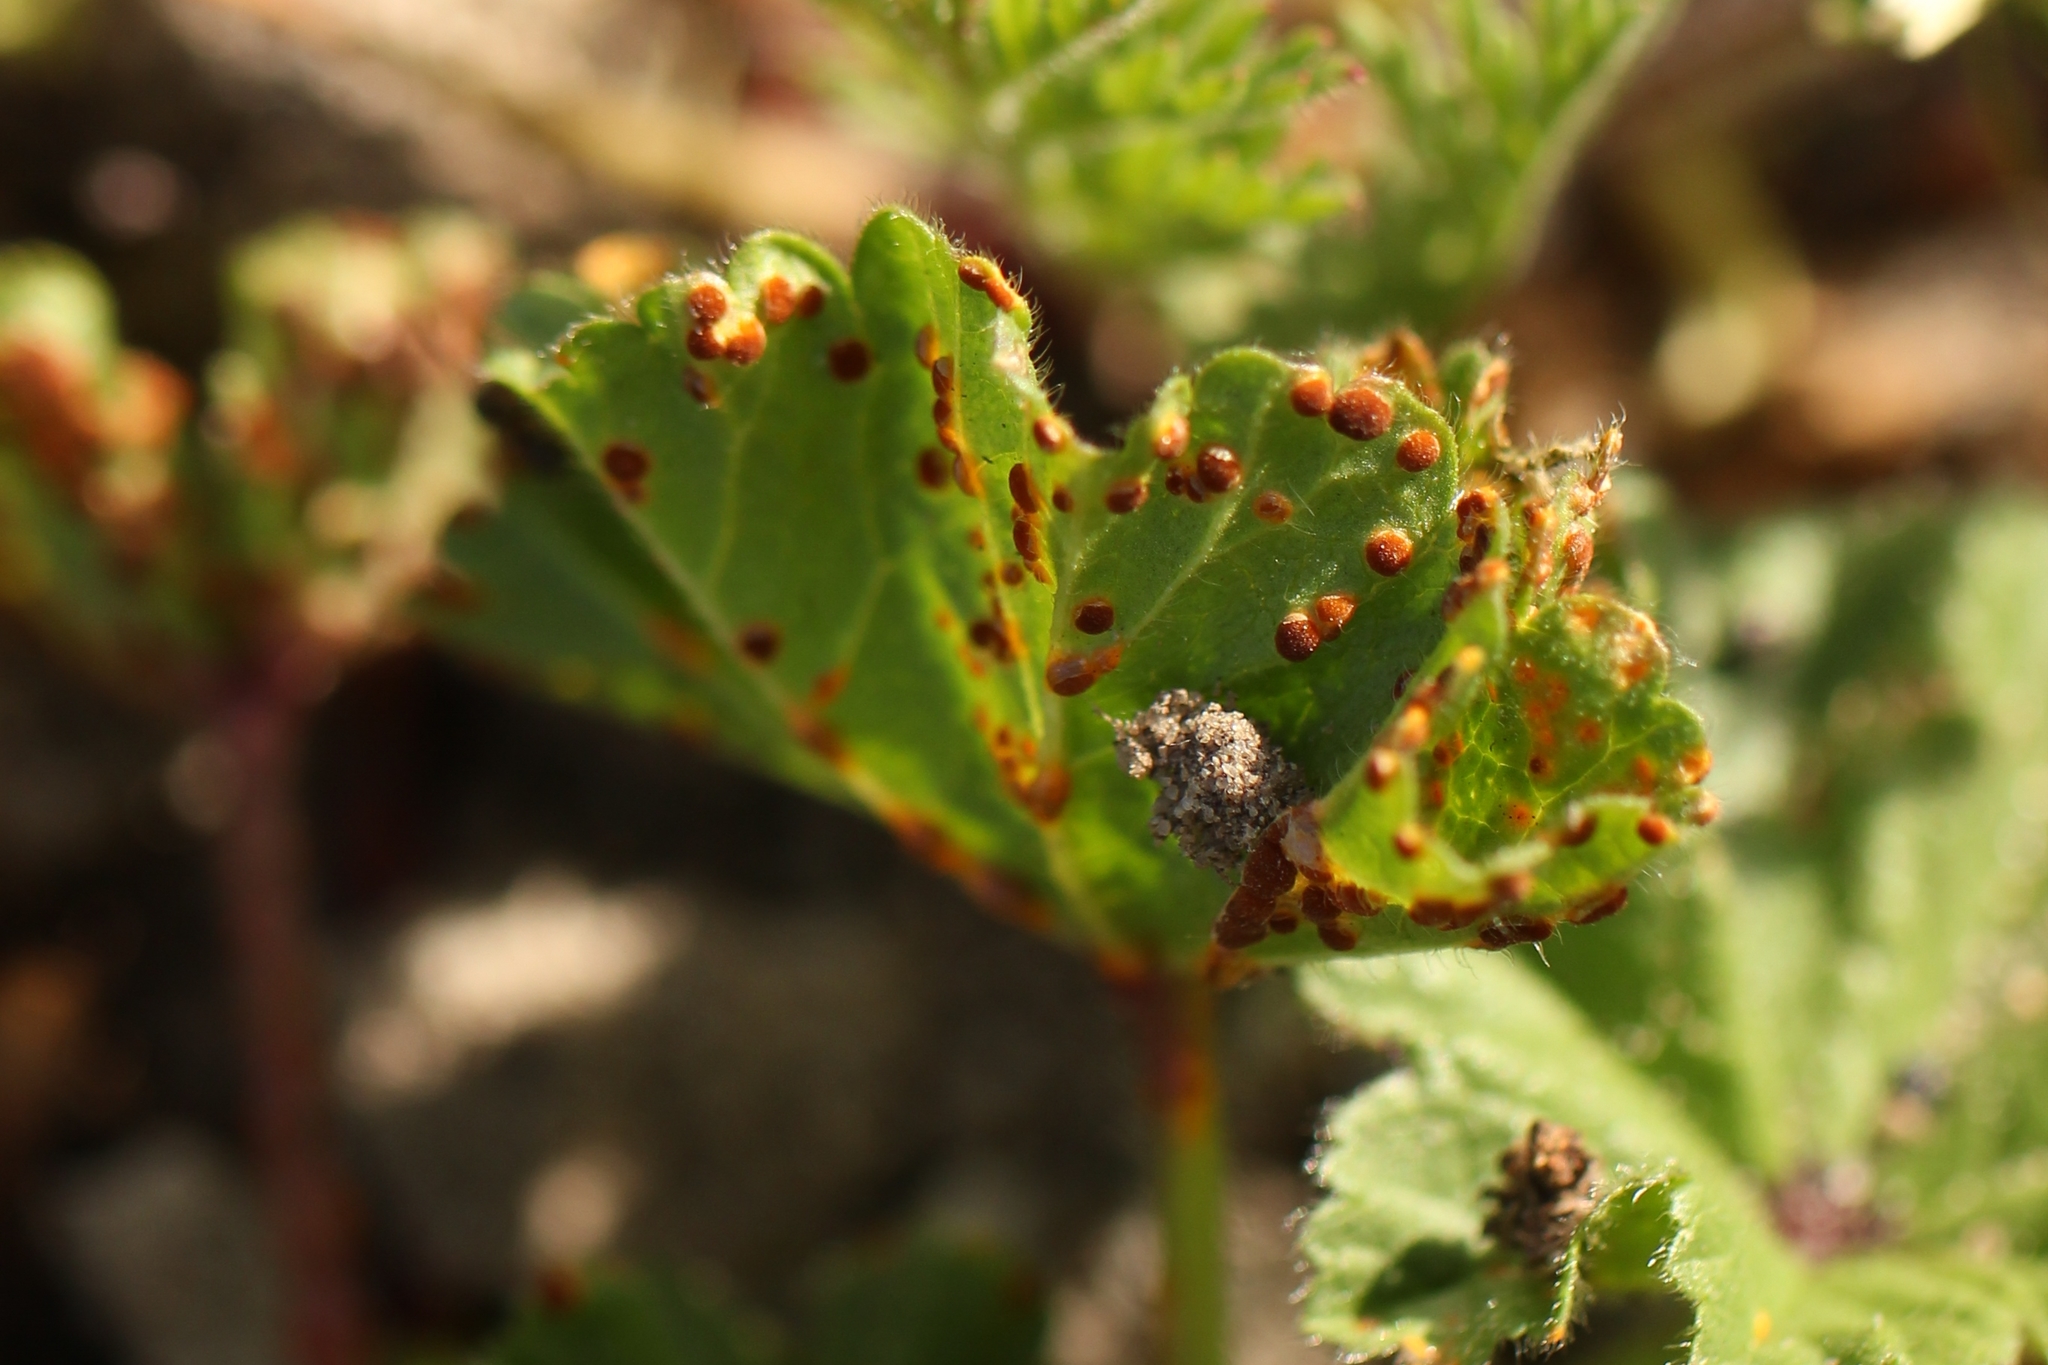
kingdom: Fungi
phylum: Basidiomycota
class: Pucciniomycetes
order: Pucciniales
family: Pucciniaceae
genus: Puccinia
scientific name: Puccinia malvacearum
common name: Hollyhock rust
